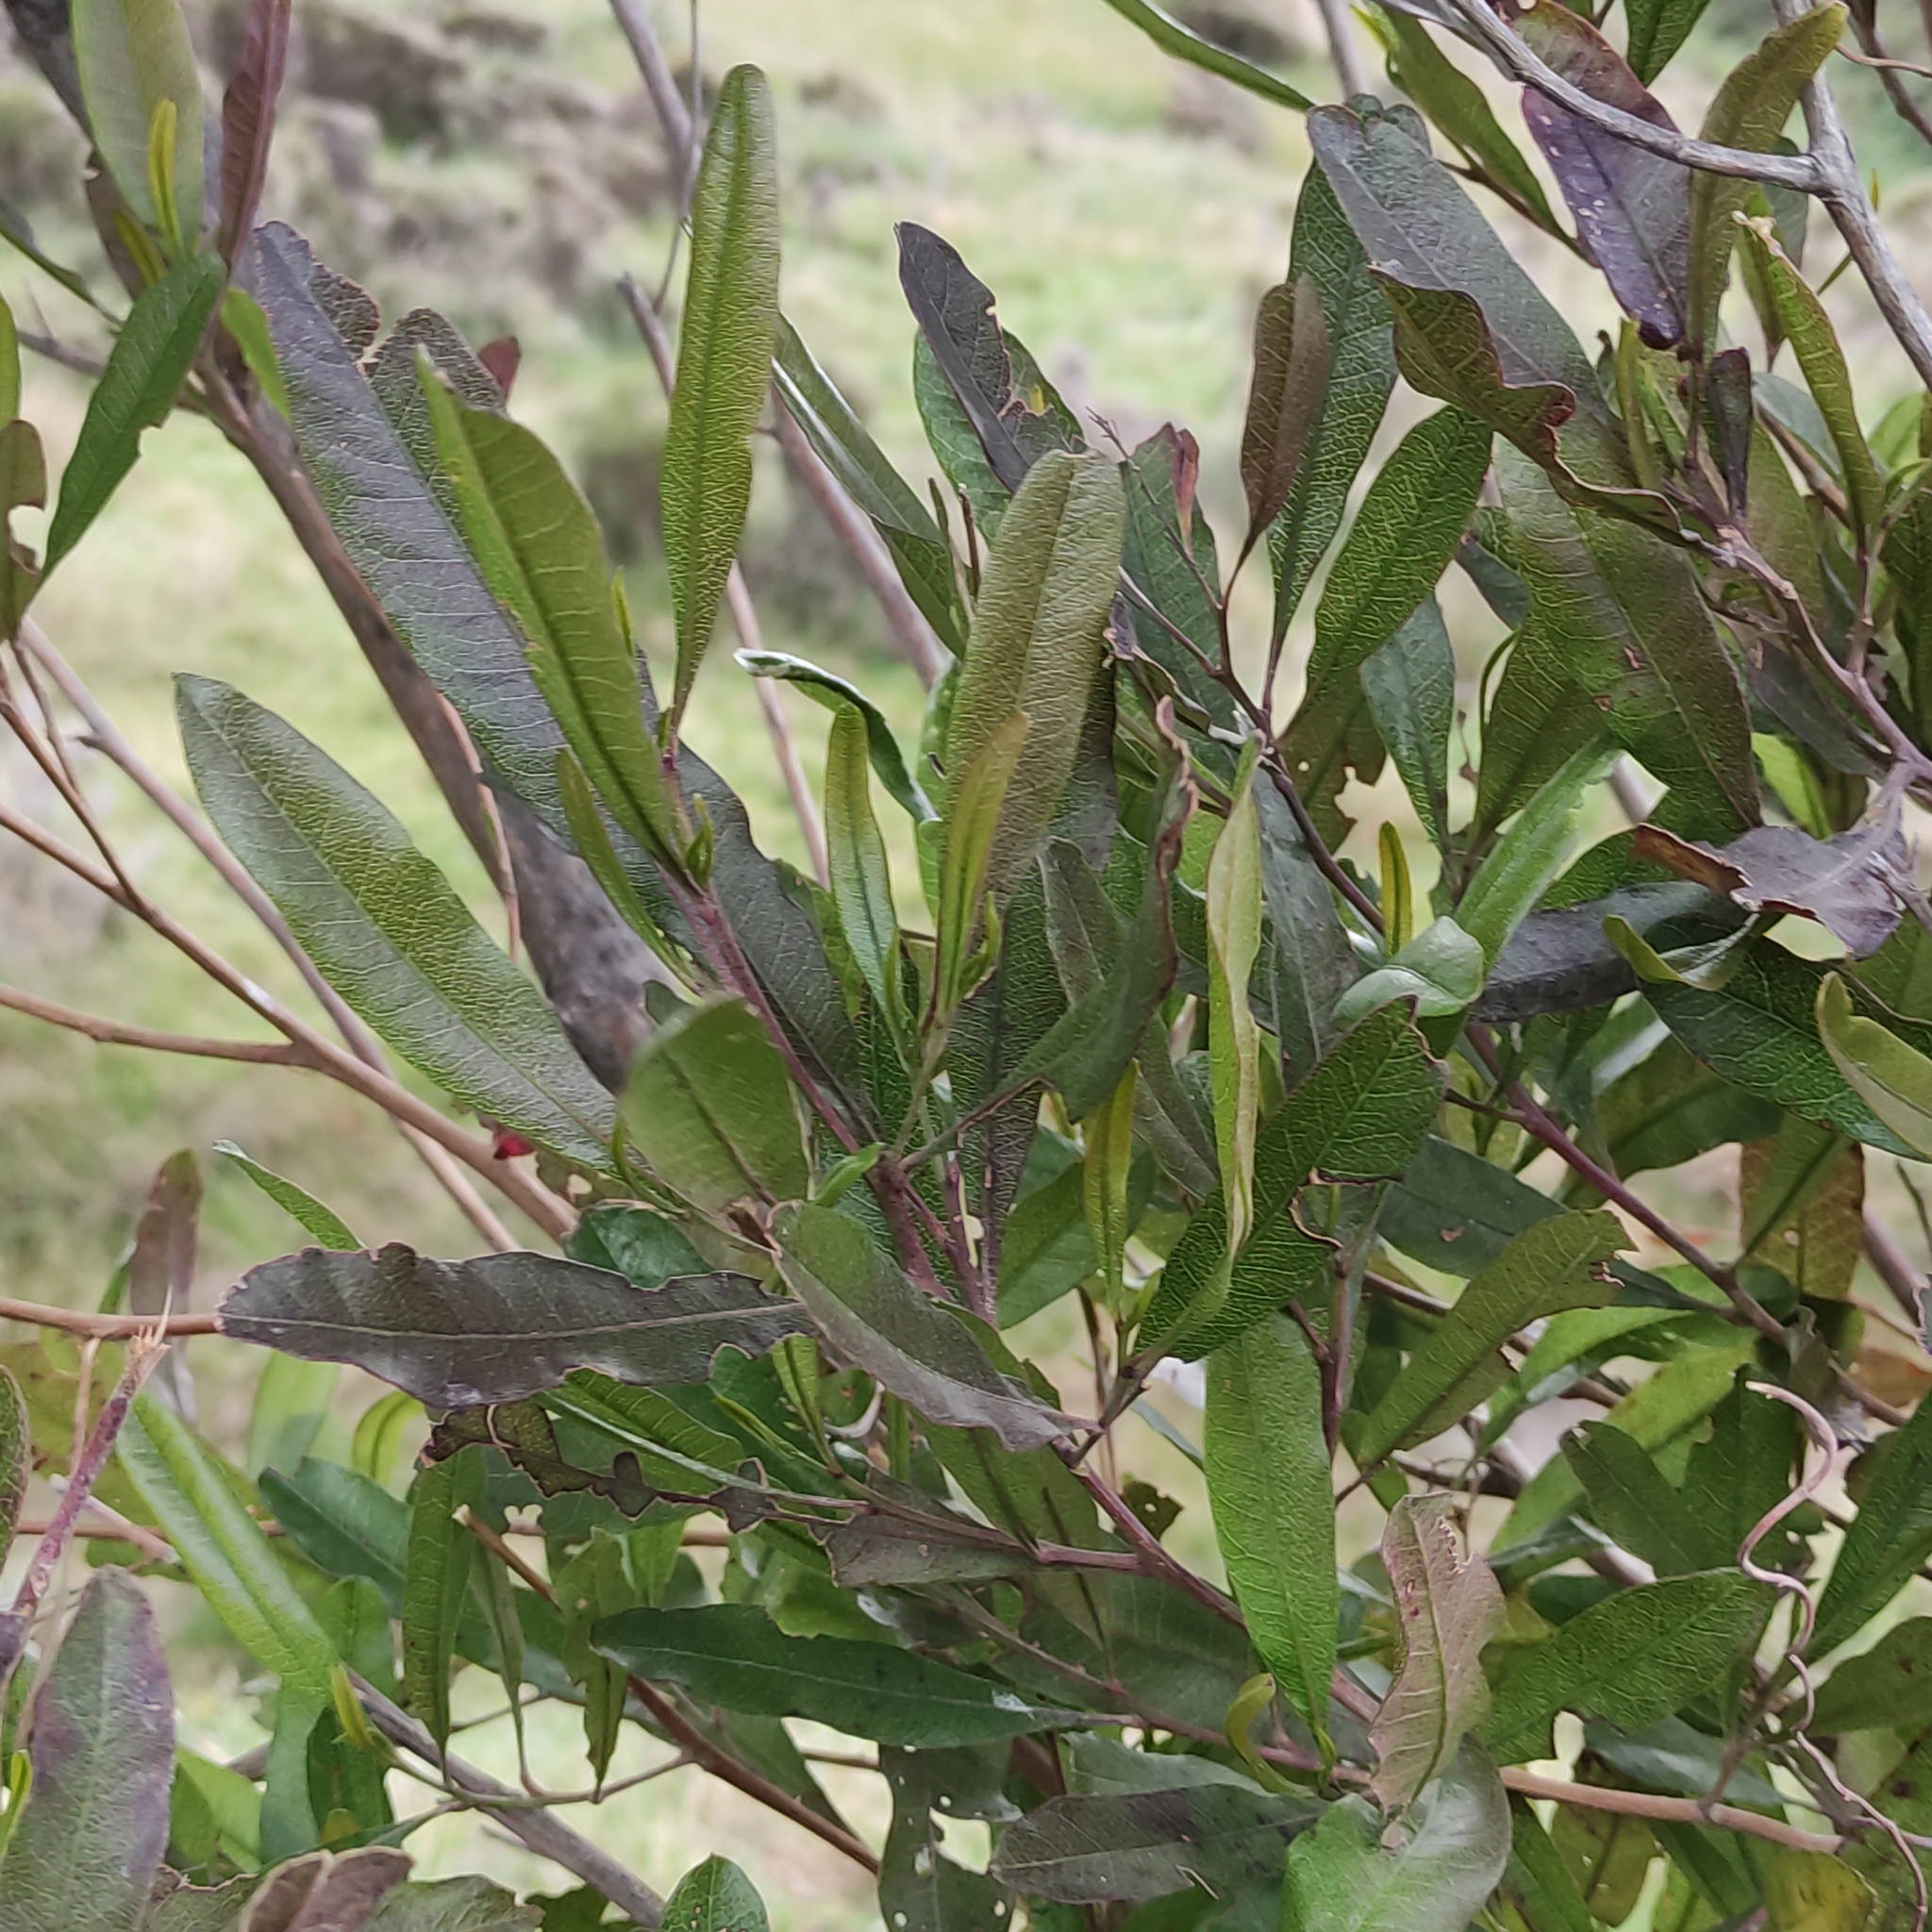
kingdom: Plantae
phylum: Tracheophyta
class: Magnoliopsida
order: Sapindales
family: Sapindaceae
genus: Dodonaea
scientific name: Dodonaea viscosa
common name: Hopbush
